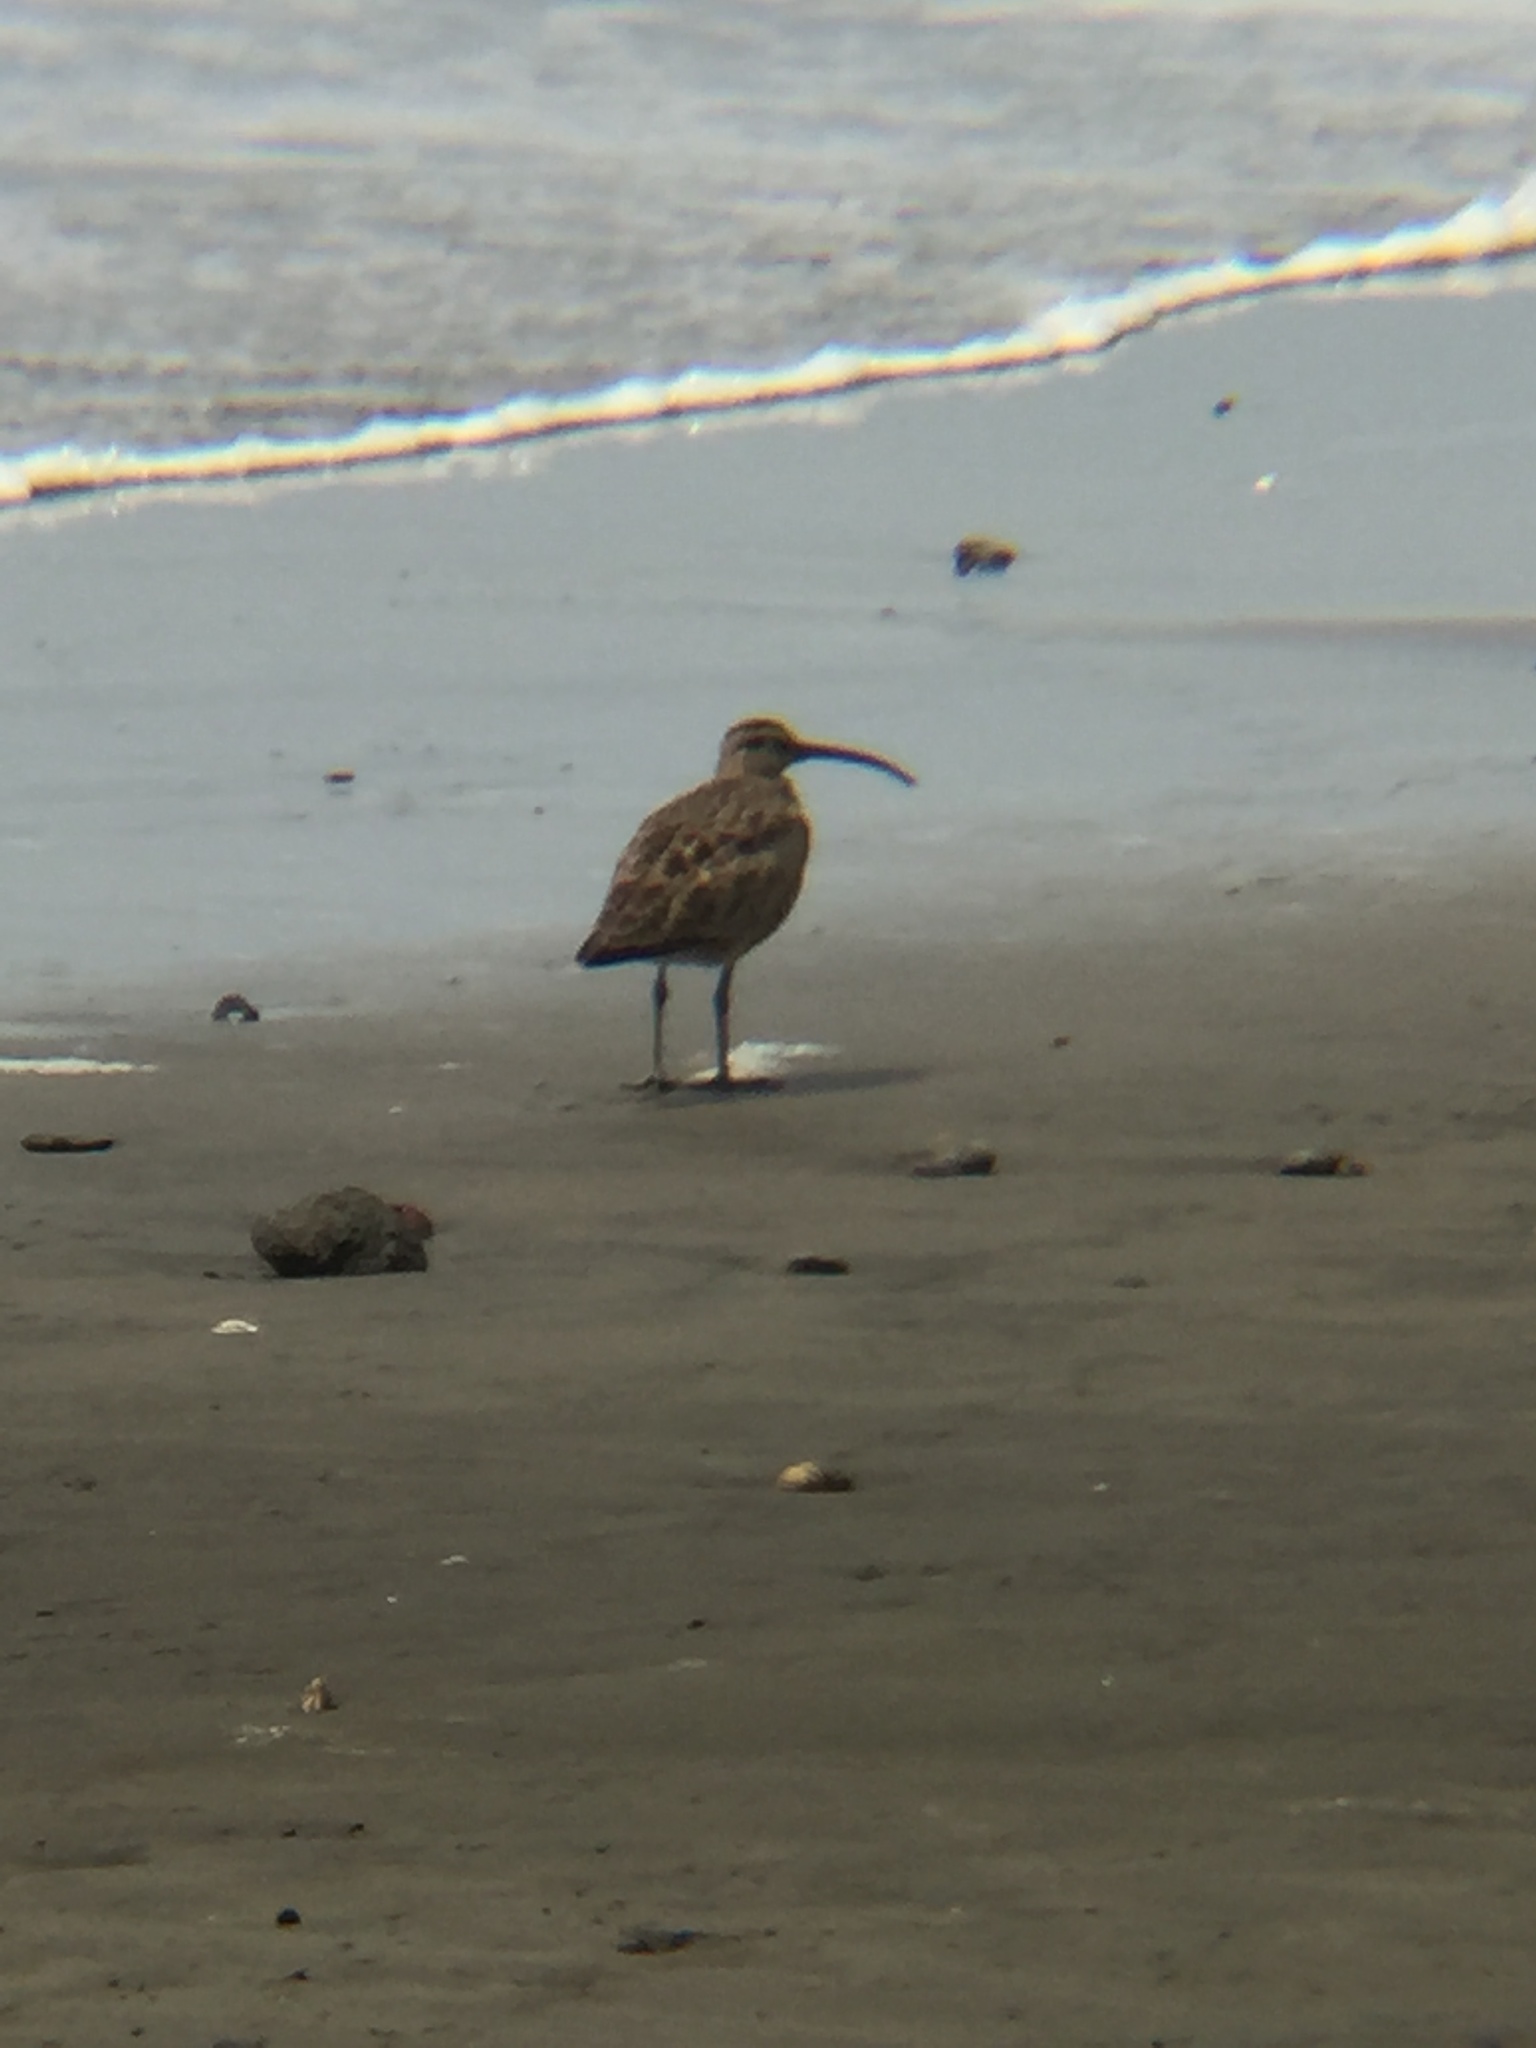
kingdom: Animalia
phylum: Chordata
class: Aves
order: Charadriiformes
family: Scolopacidae
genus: Numenius
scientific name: Numenius phaeopus
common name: Whimbrel
